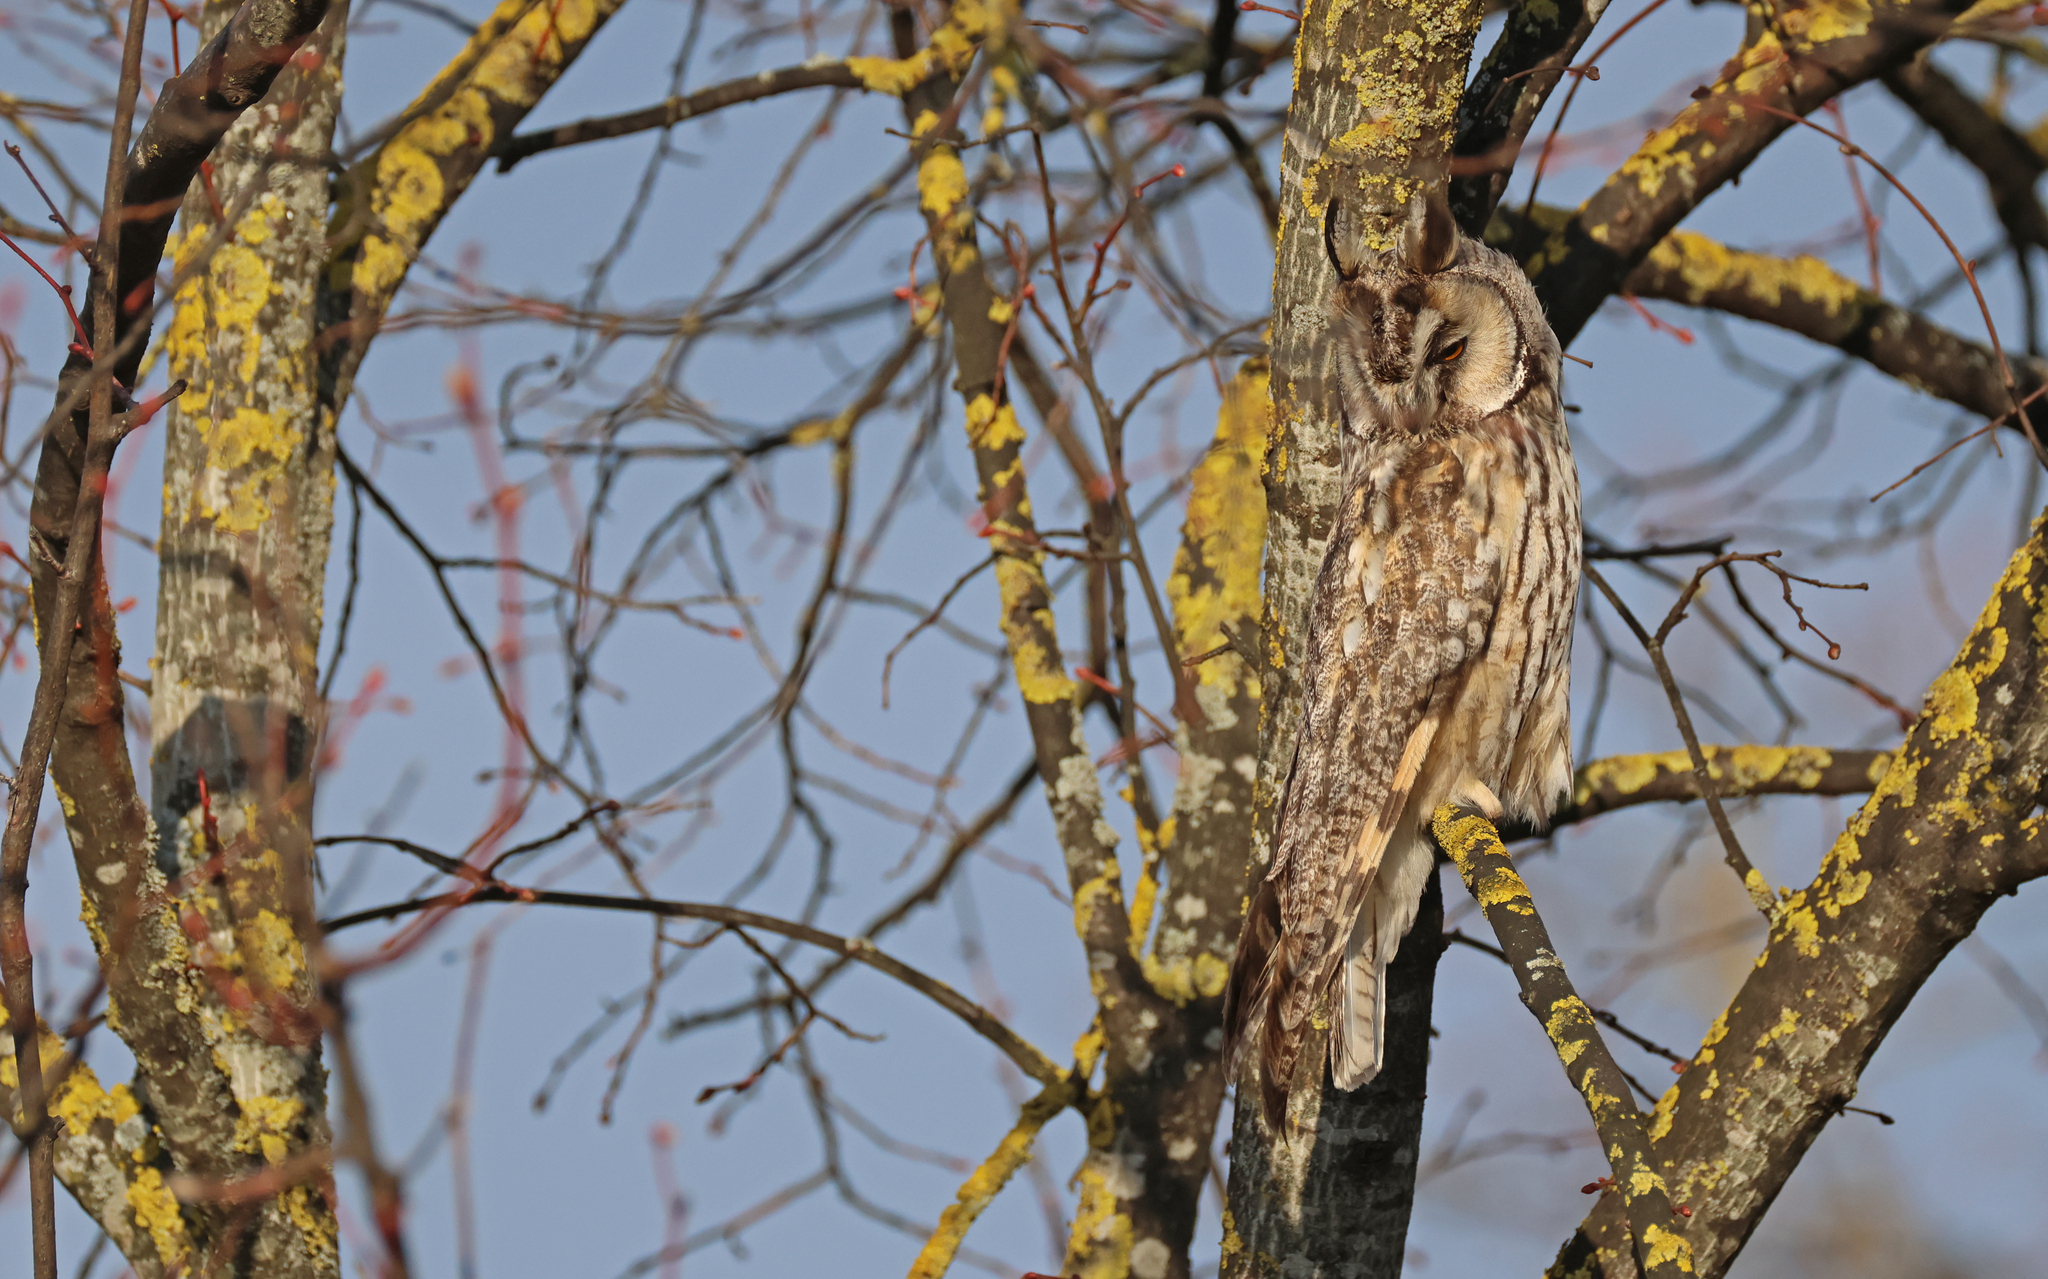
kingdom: Animalia
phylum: Chordata
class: Aves
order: Strigiformes
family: Strigidae
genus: Asio
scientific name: Asio otus
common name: Long-eared owl
